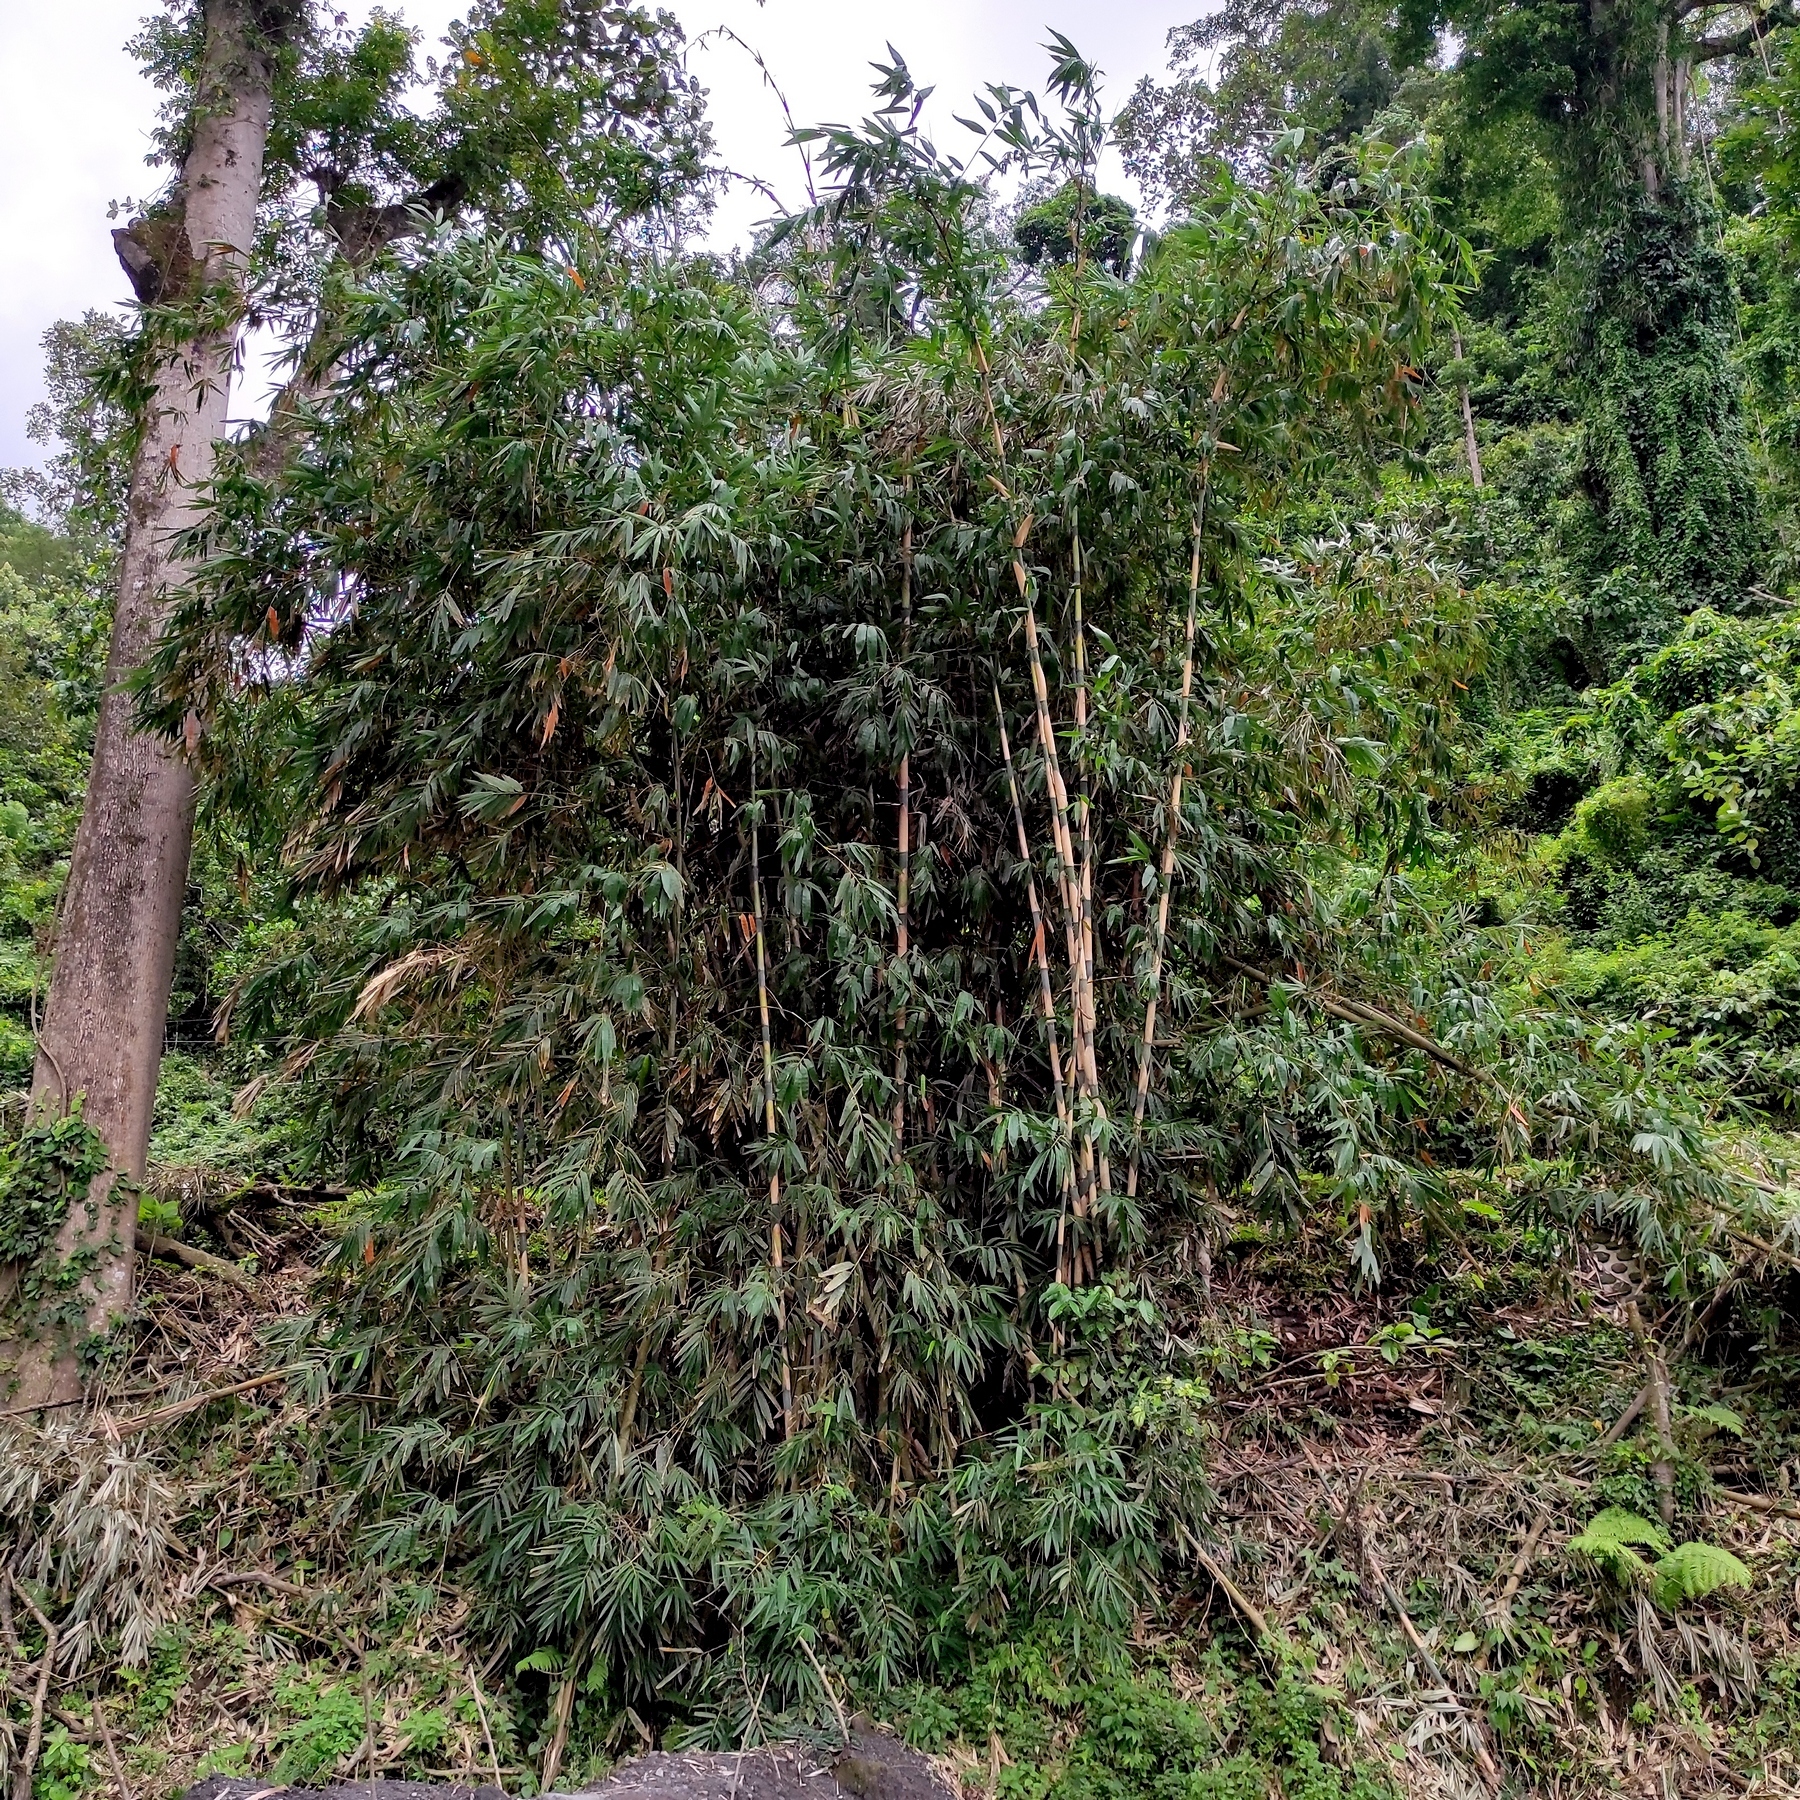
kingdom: Plantae
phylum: Tracheophyta
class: Liliopsida
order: Poales
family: Poaceae
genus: Gigantochloa
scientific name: Gigantochloa apus
